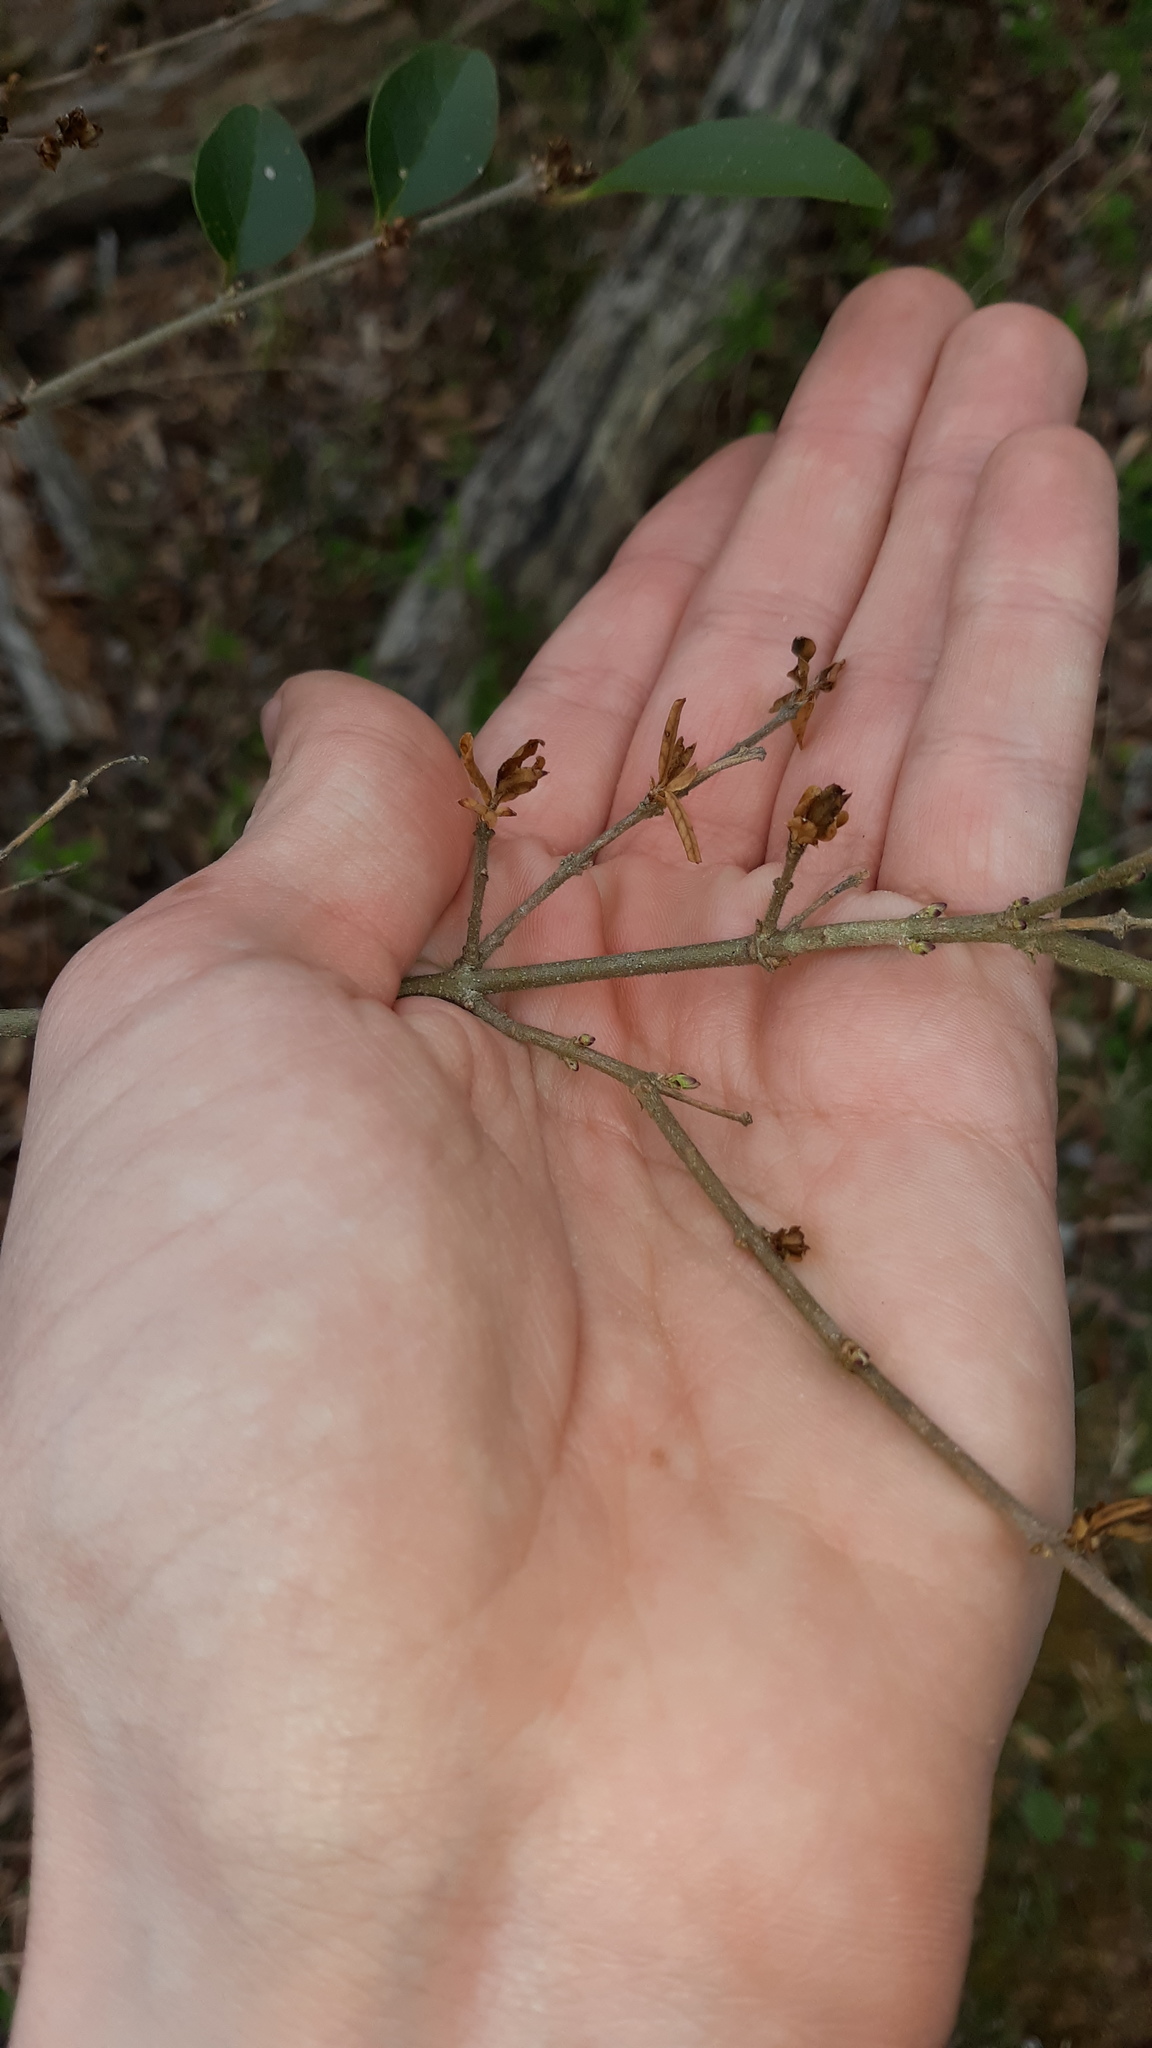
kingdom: Plantae
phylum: Tracheophyta
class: Magnoliopsida
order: Lamiales
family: Oleaceae
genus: Ligustrum
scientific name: Ligustrum sinense
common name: Chinese privet
